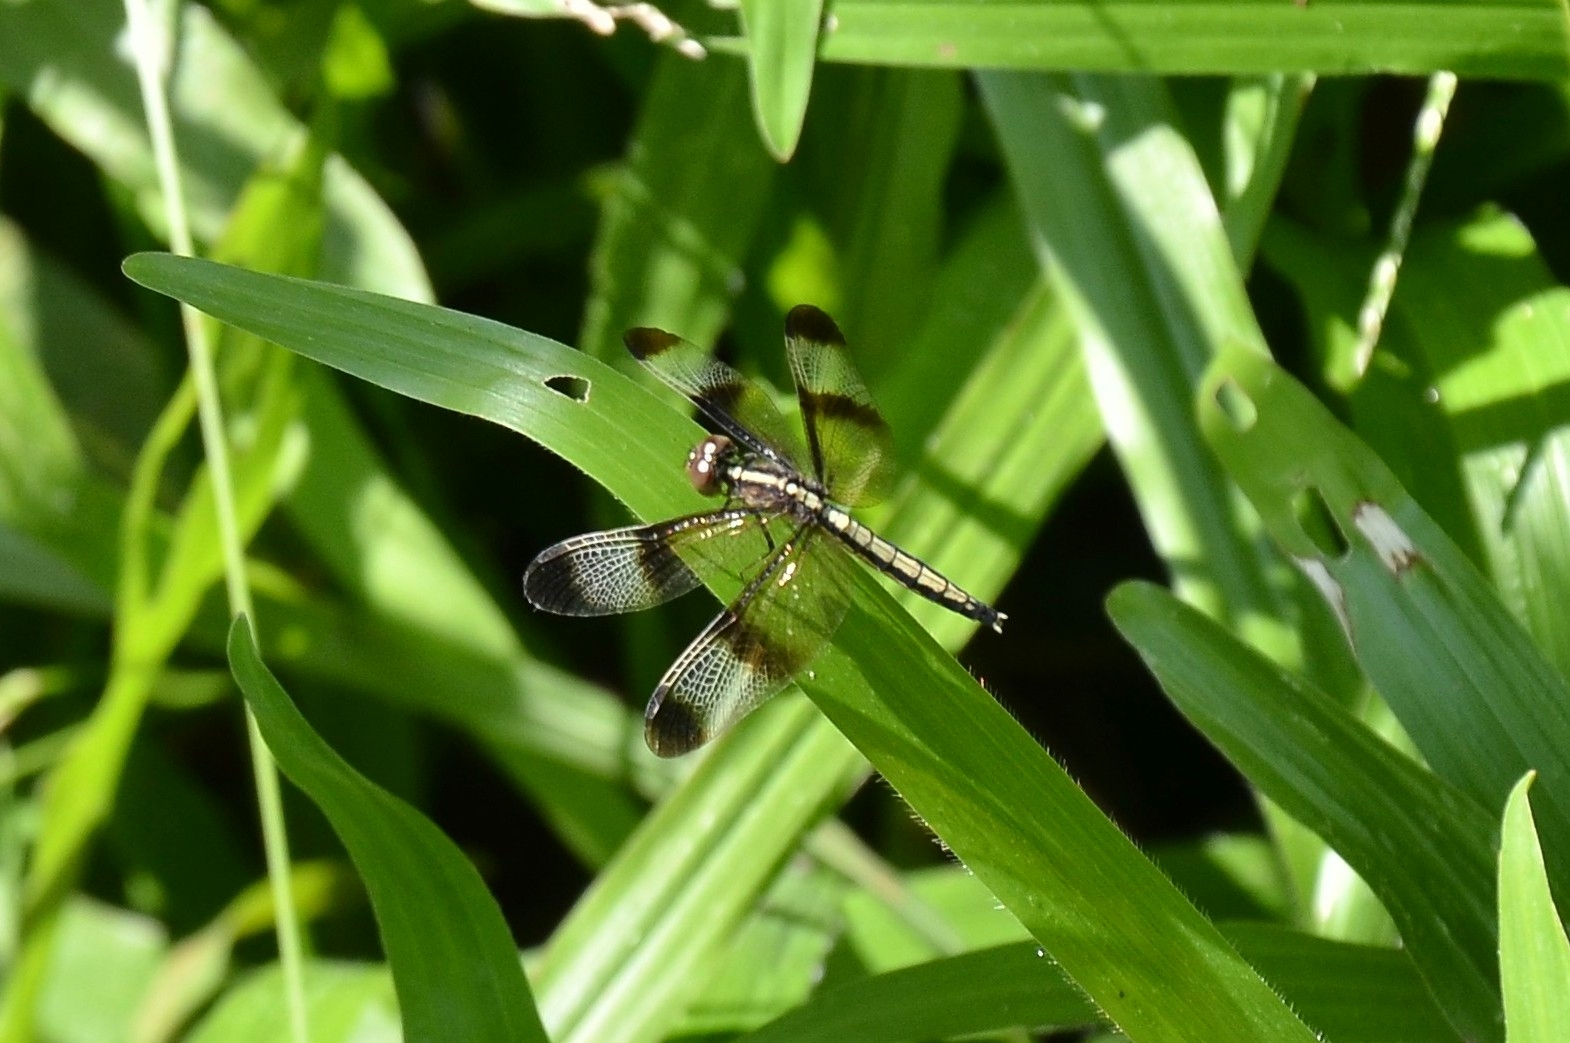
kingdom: Animalia
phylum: Arthropoda
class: Insecta
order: Odonata
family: Libellulidae
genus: Neurothemis
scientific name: Neurothemis tullia
